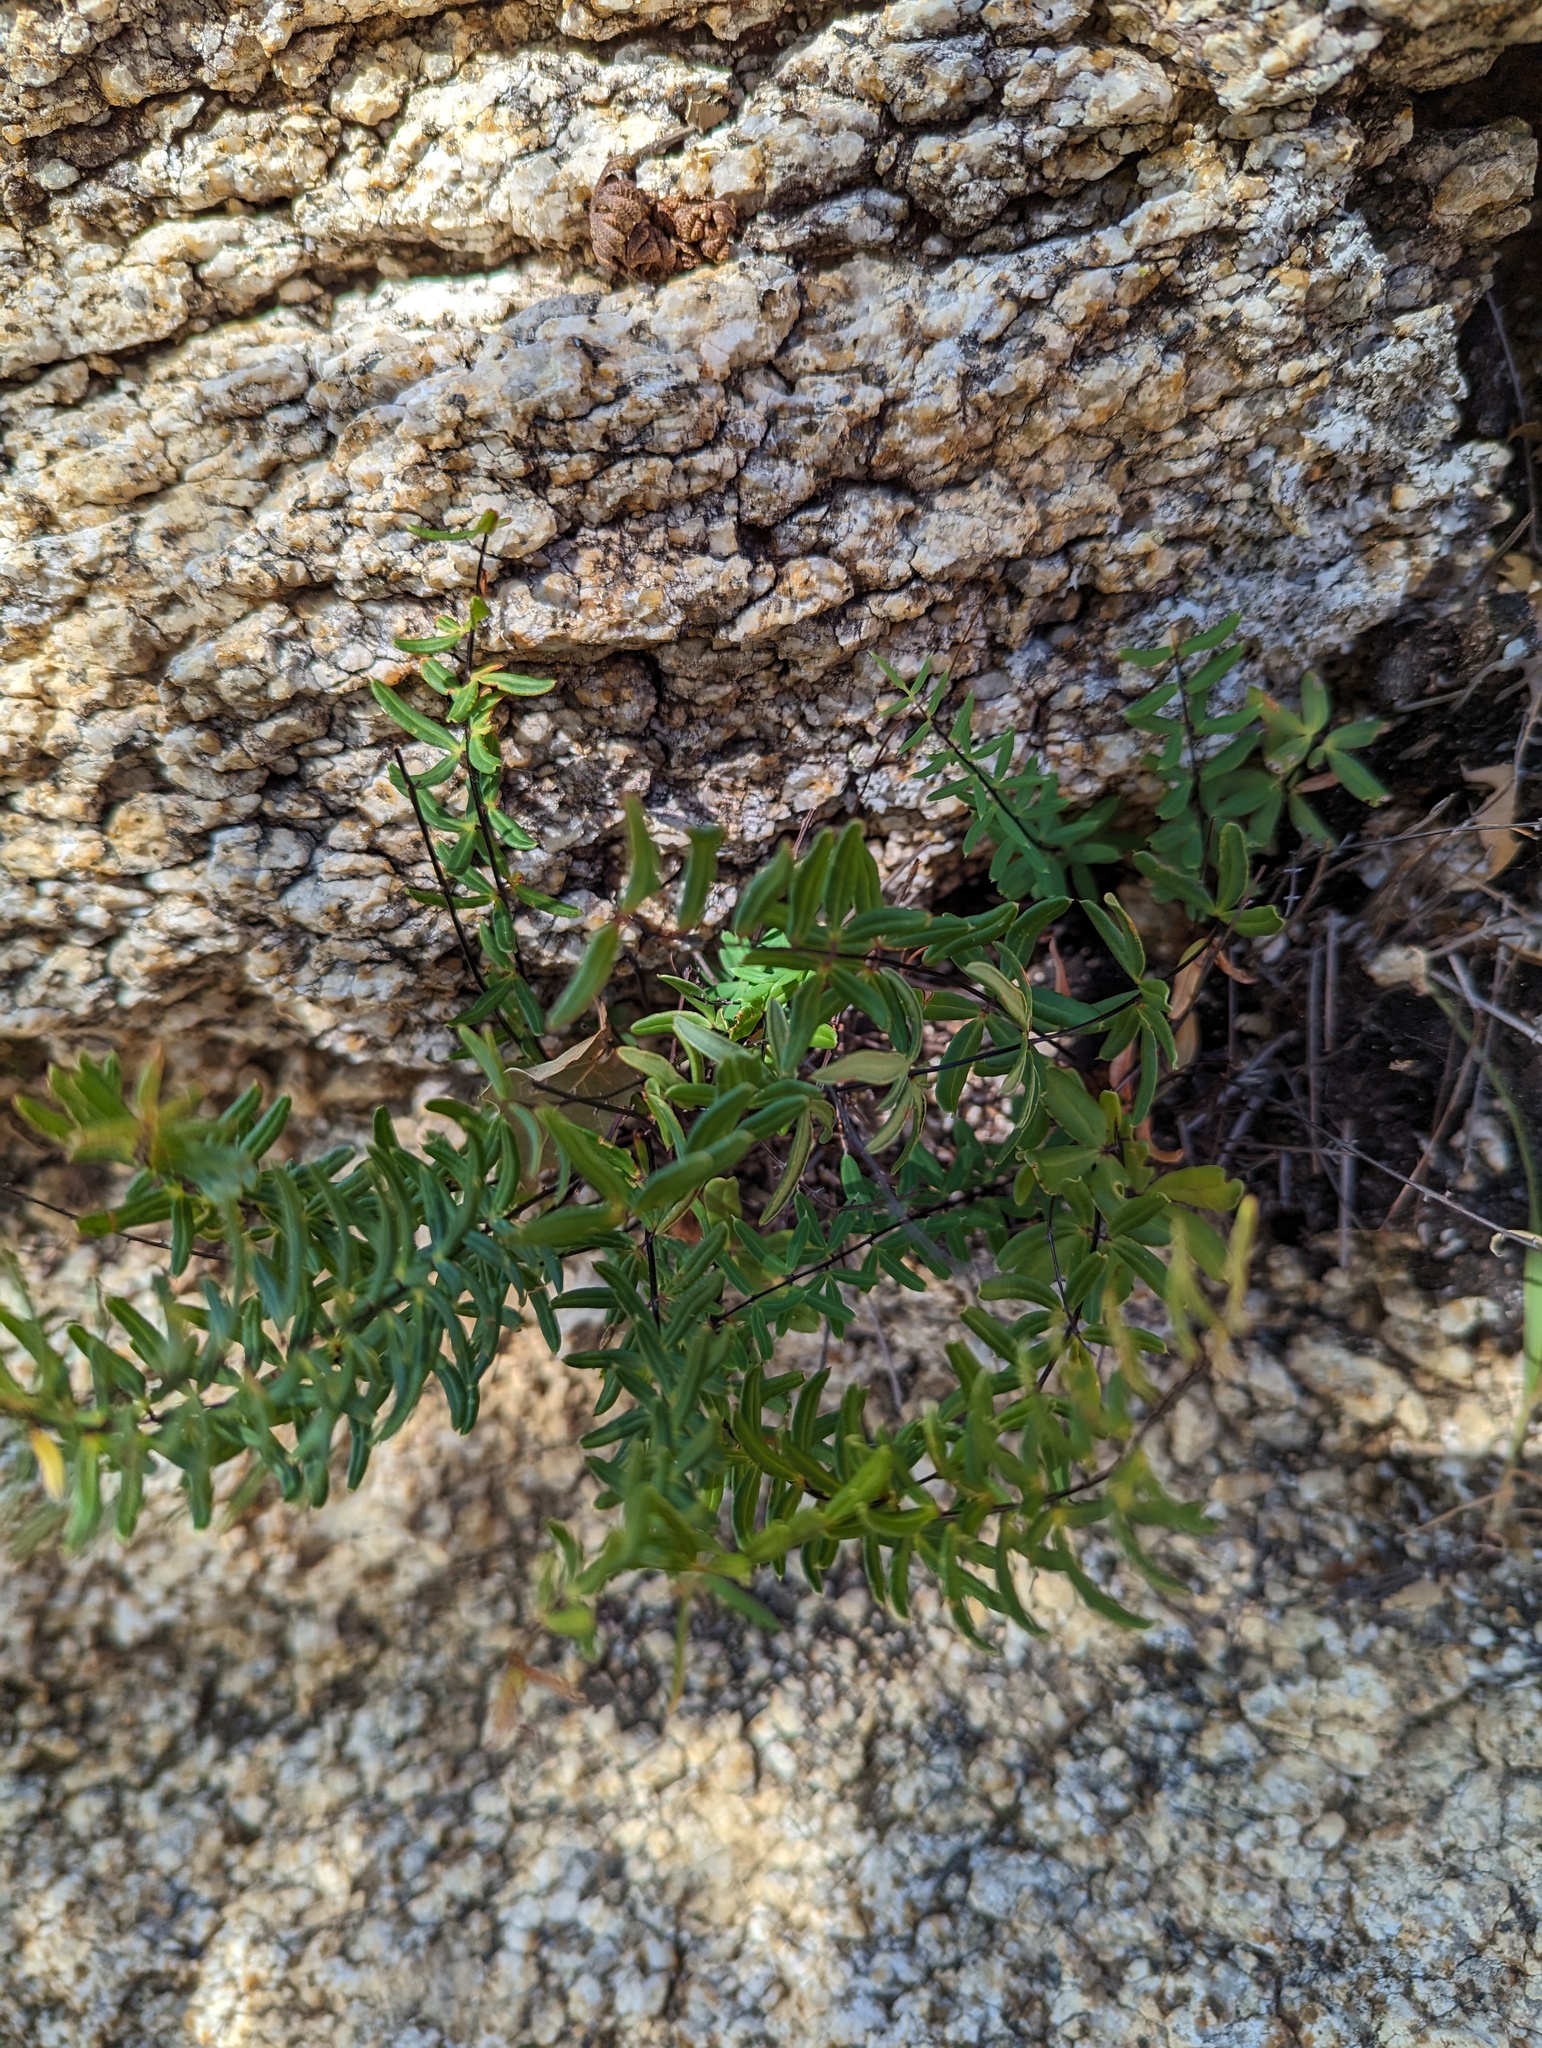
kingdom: Plantae
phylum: Tracheophyta
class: Polypodiopsida
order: Polypodiales
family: Pteridaceae
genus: Pellaea
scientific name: Pellaea ternifolia
